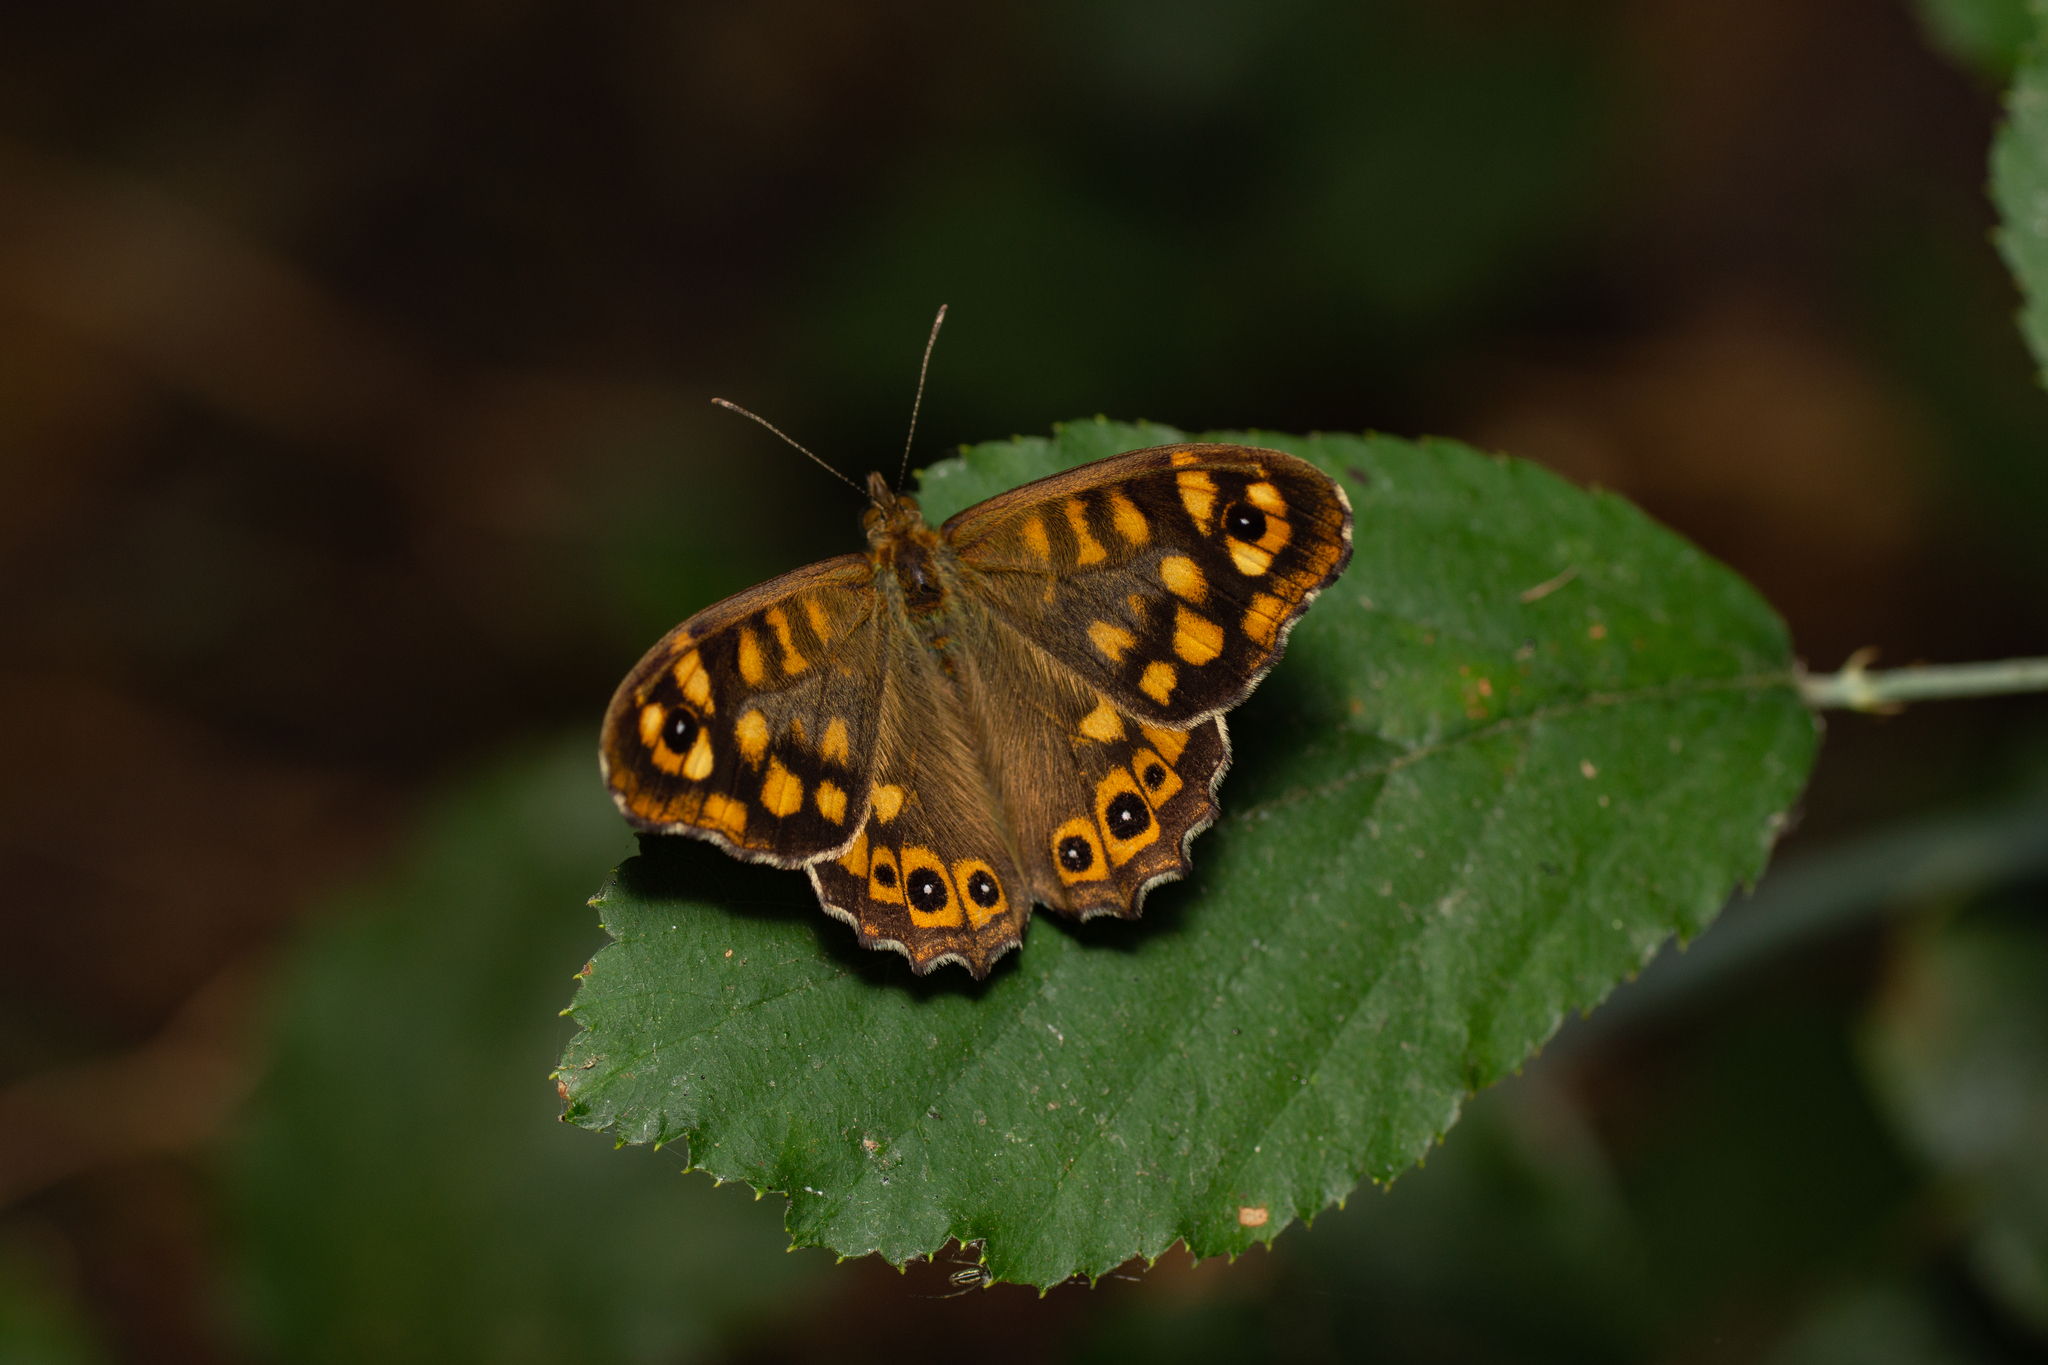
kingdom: Animalia
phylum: Arthropoda
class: Insecta
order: Lepidoptera
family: Nymphalidae
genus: Pararge
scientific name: Pararge aegeria
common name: Speckled wood
